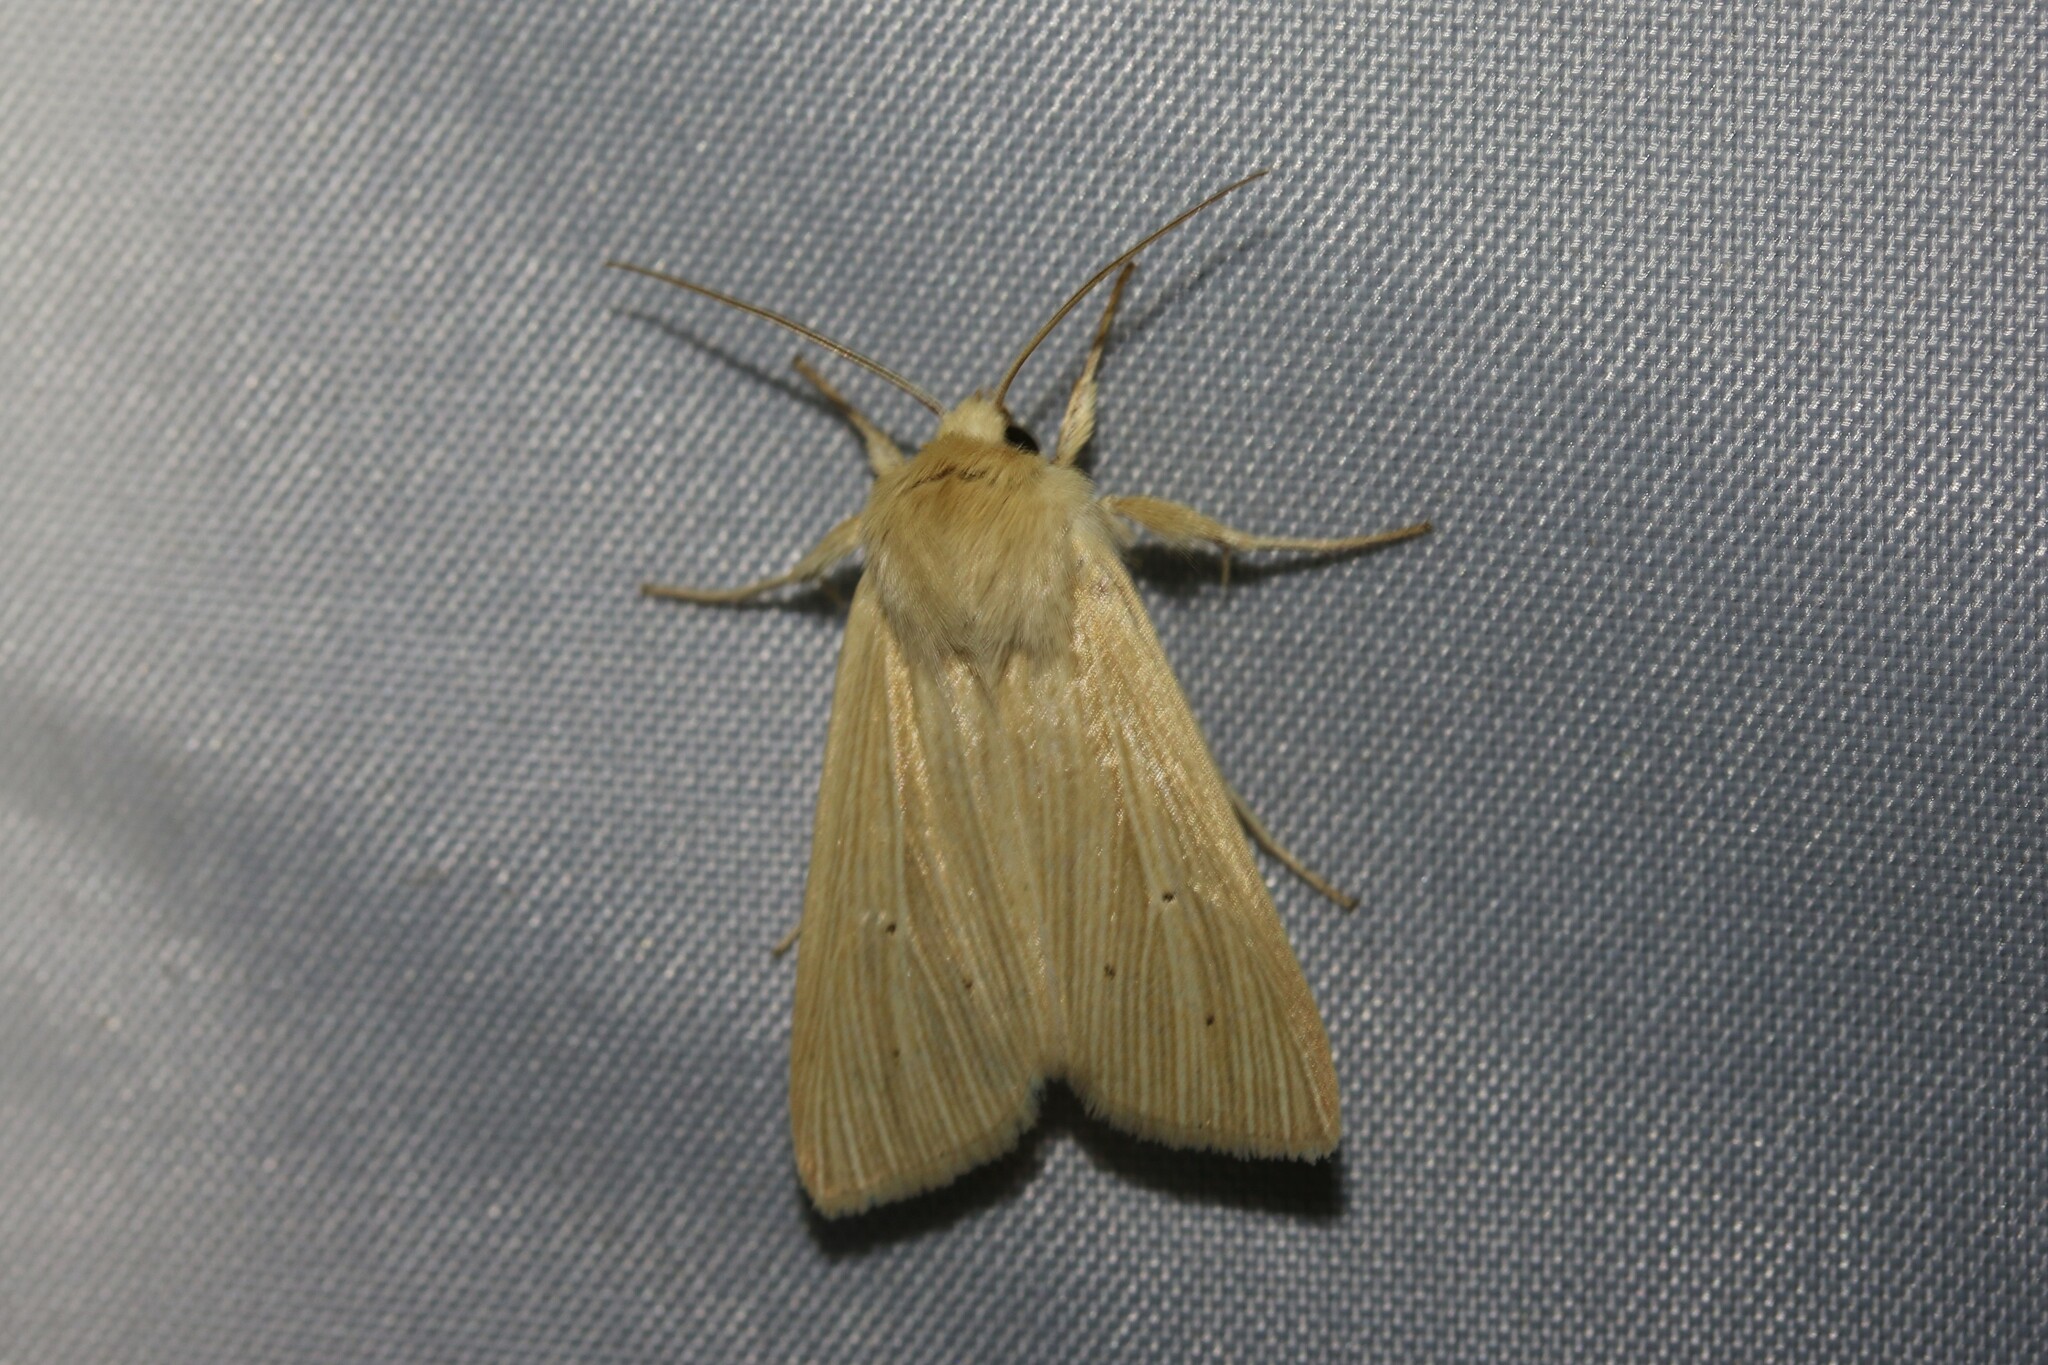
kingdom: Animalia
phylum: Arthropoda
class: Insecta
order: Lepidoptera
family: Noctuidae
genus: Mythimna
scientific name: Mythimna pallens
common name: Common wainscot
